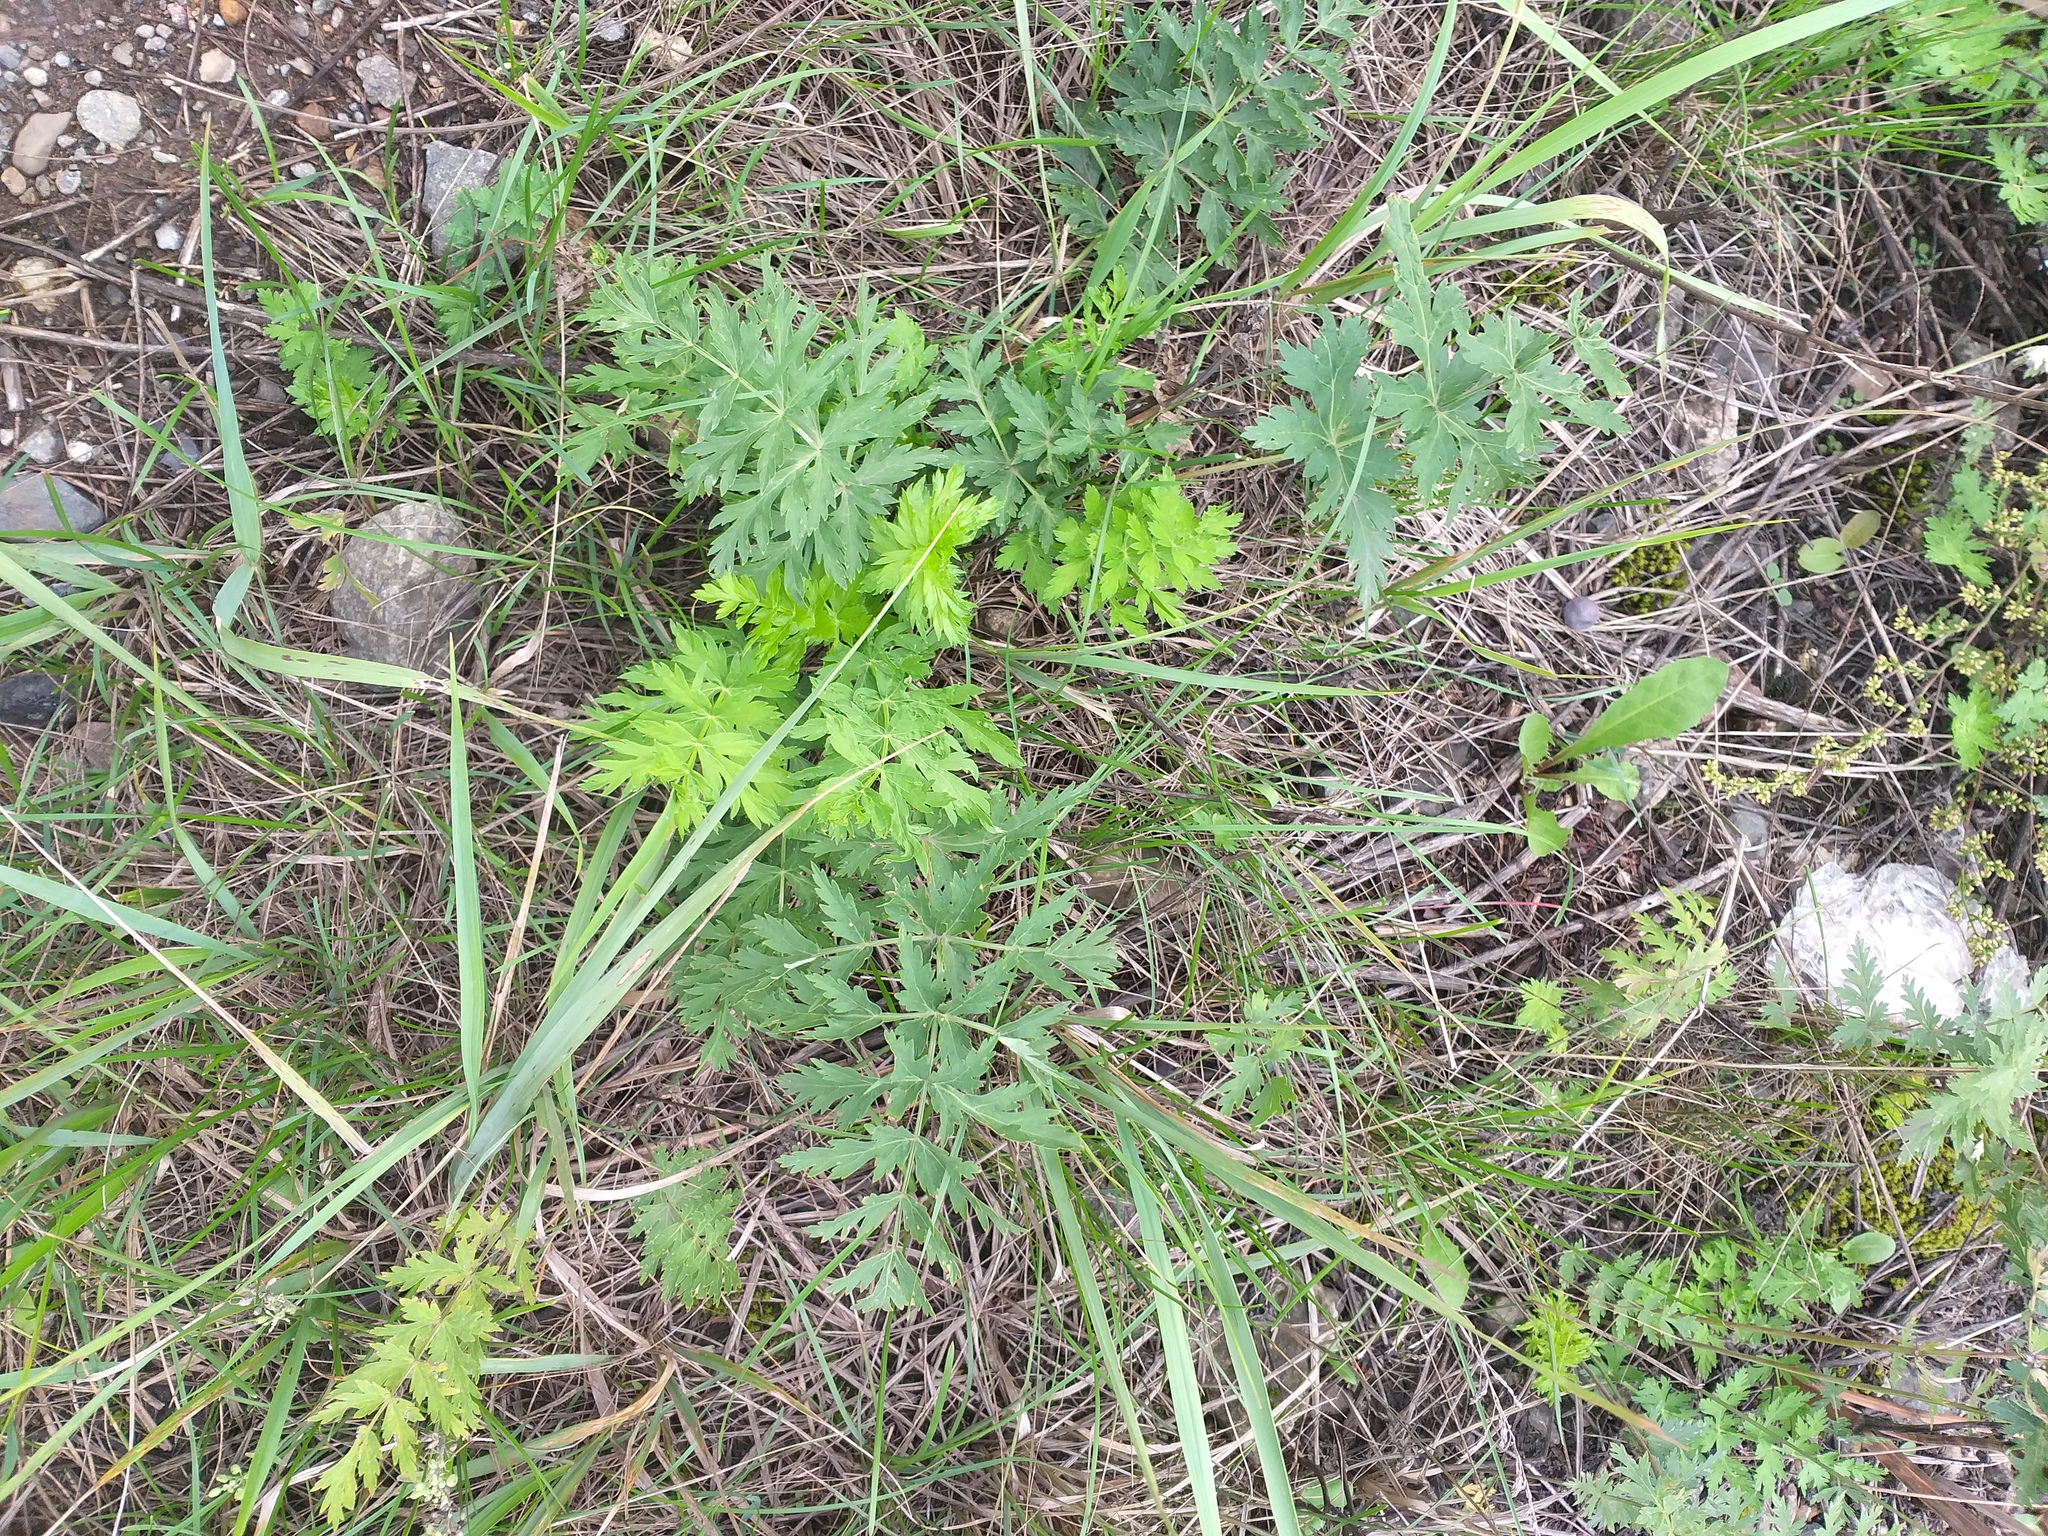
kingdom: Plantae
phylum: Tracheophyta
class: Magnoliopsida
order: Apiales
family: Apiaceae
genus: Seseli
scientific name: Seseli libanotis
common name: Mooncarrot
